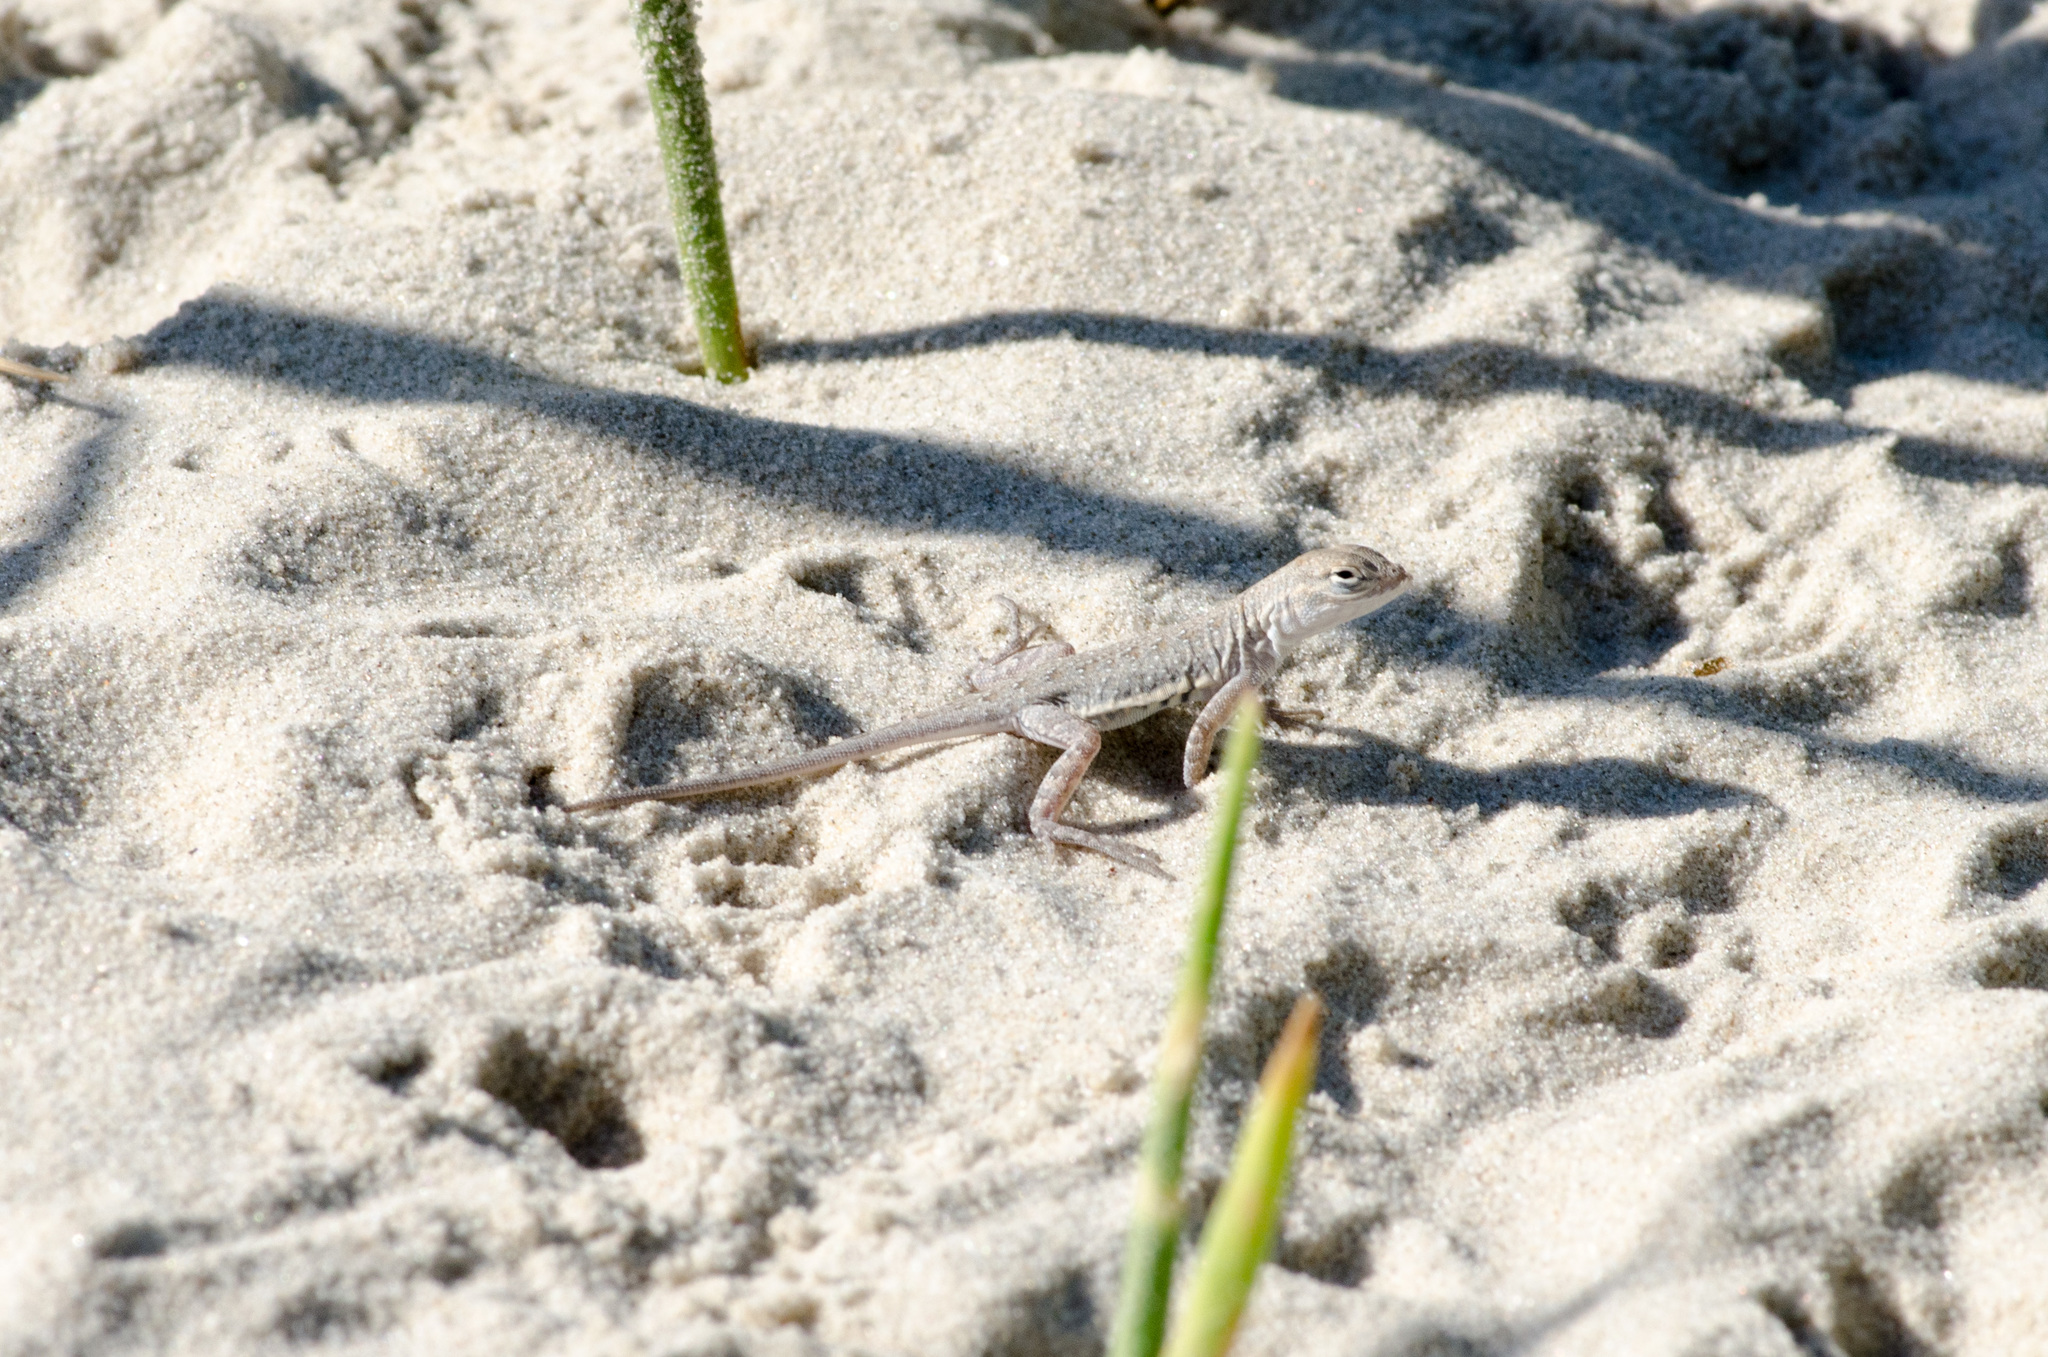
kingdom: Animalia
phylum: Chordata
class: Squamata
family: Phrynosomatidae
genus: Holbrookia
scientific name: Holbrookia propinqua
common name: Keeled earless lizard
